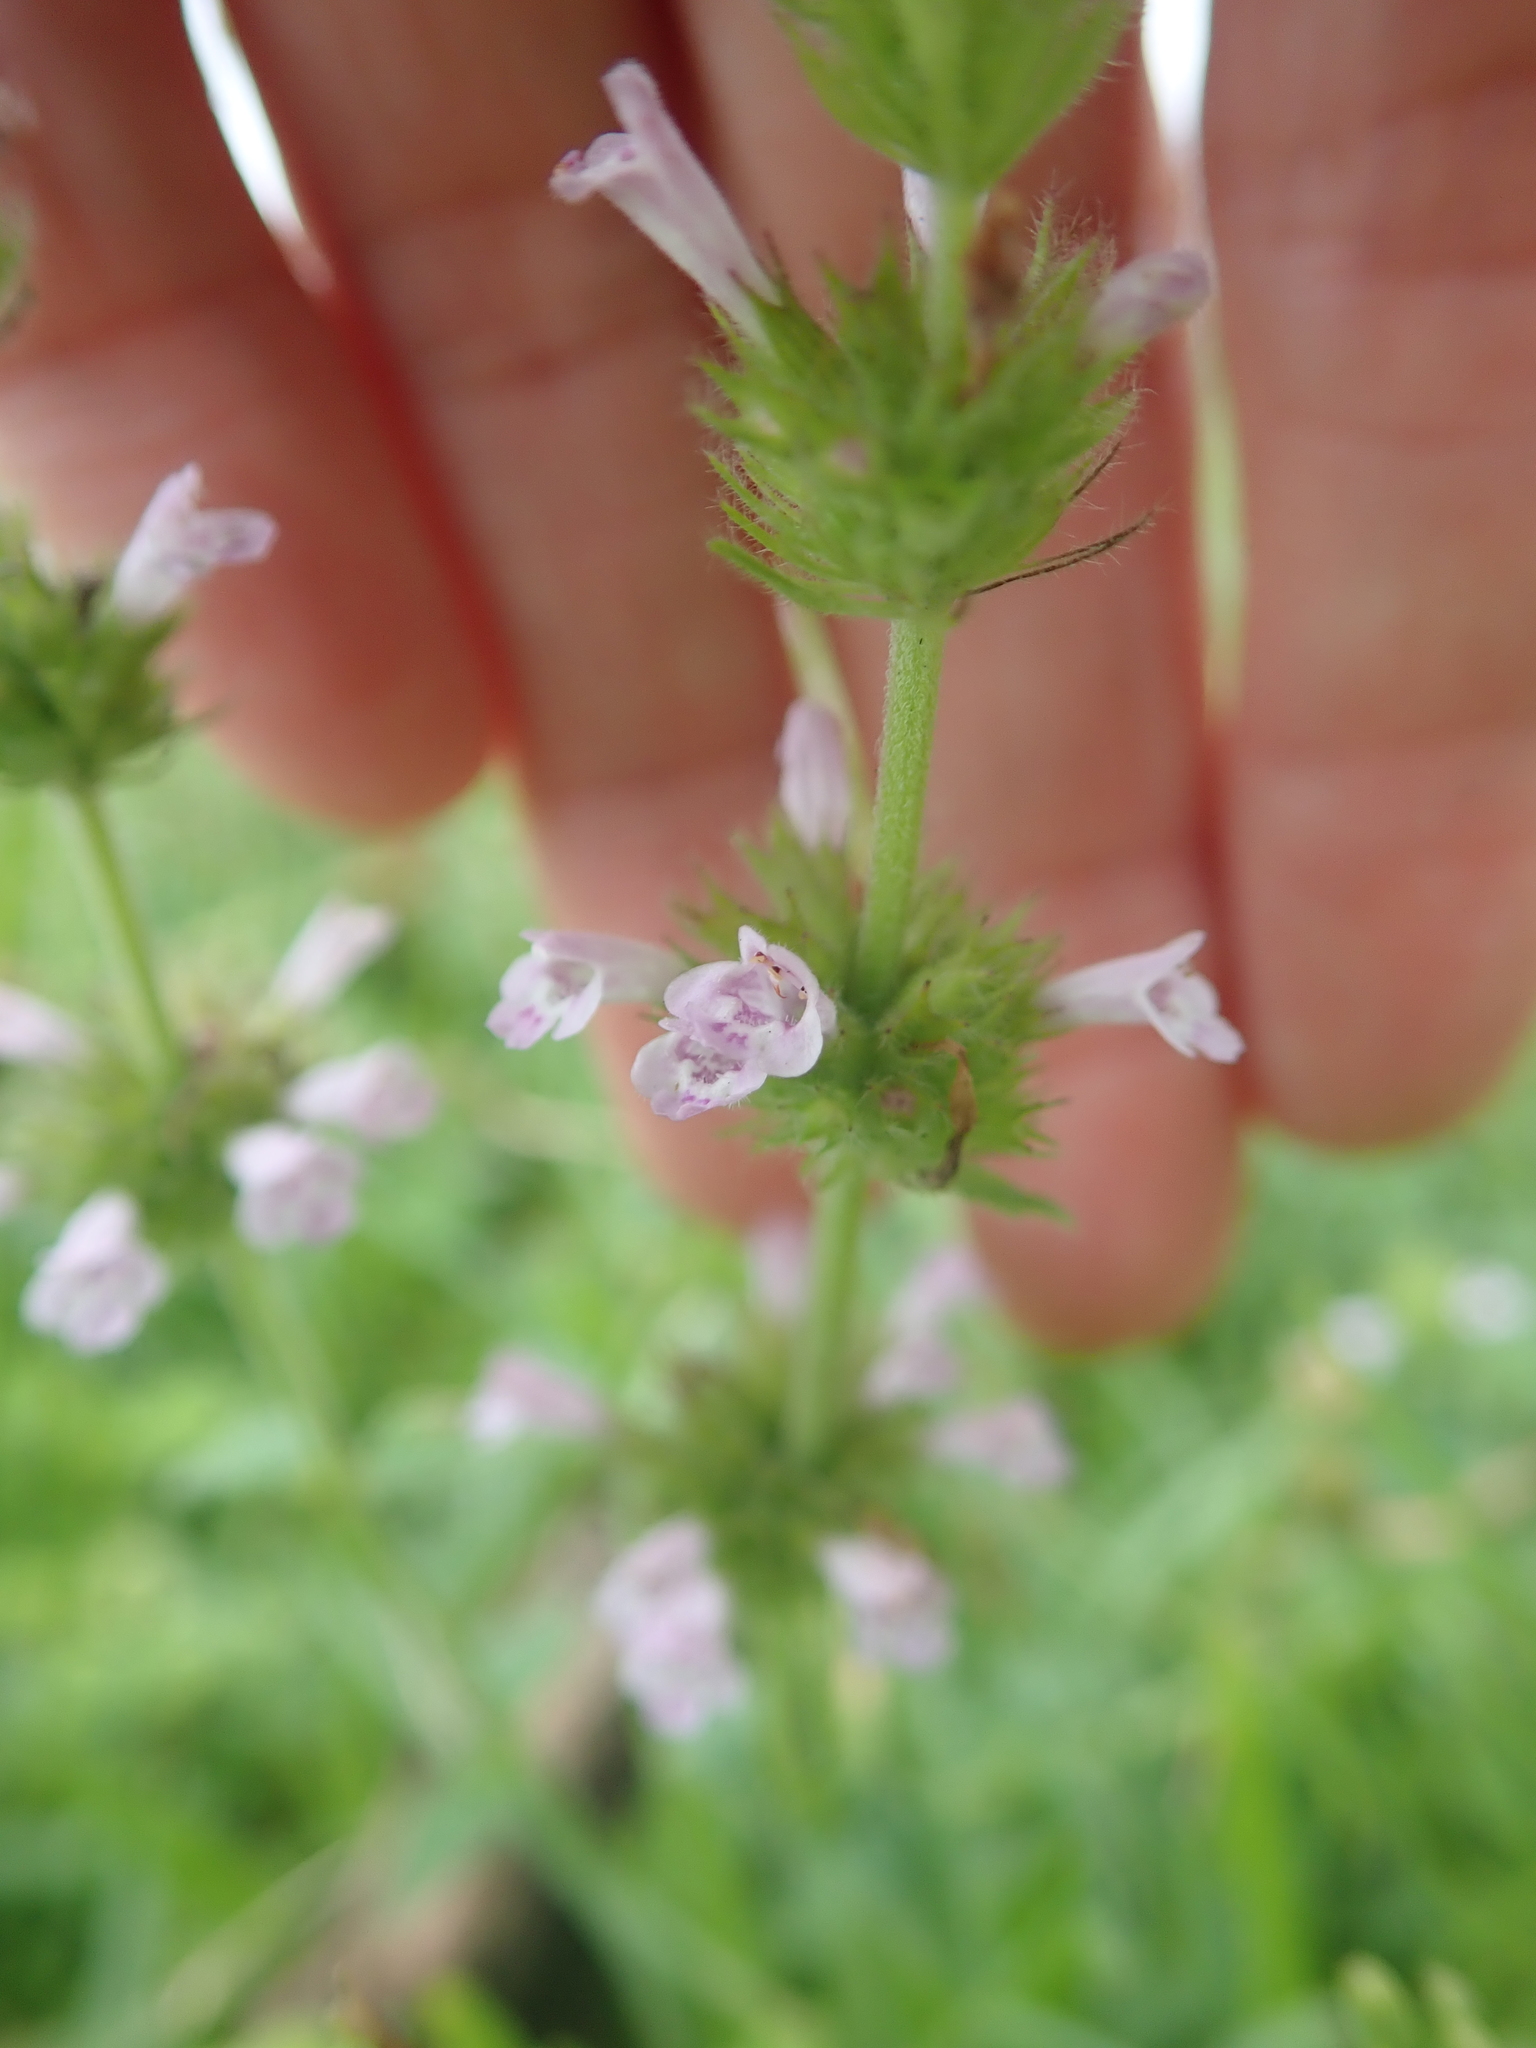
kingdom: Plantae
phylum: Tracheophyta
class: Magnoliopsida
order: Lamiales
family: Lamiaceae
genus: Clinopodium
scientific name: Clinopodium chinense
